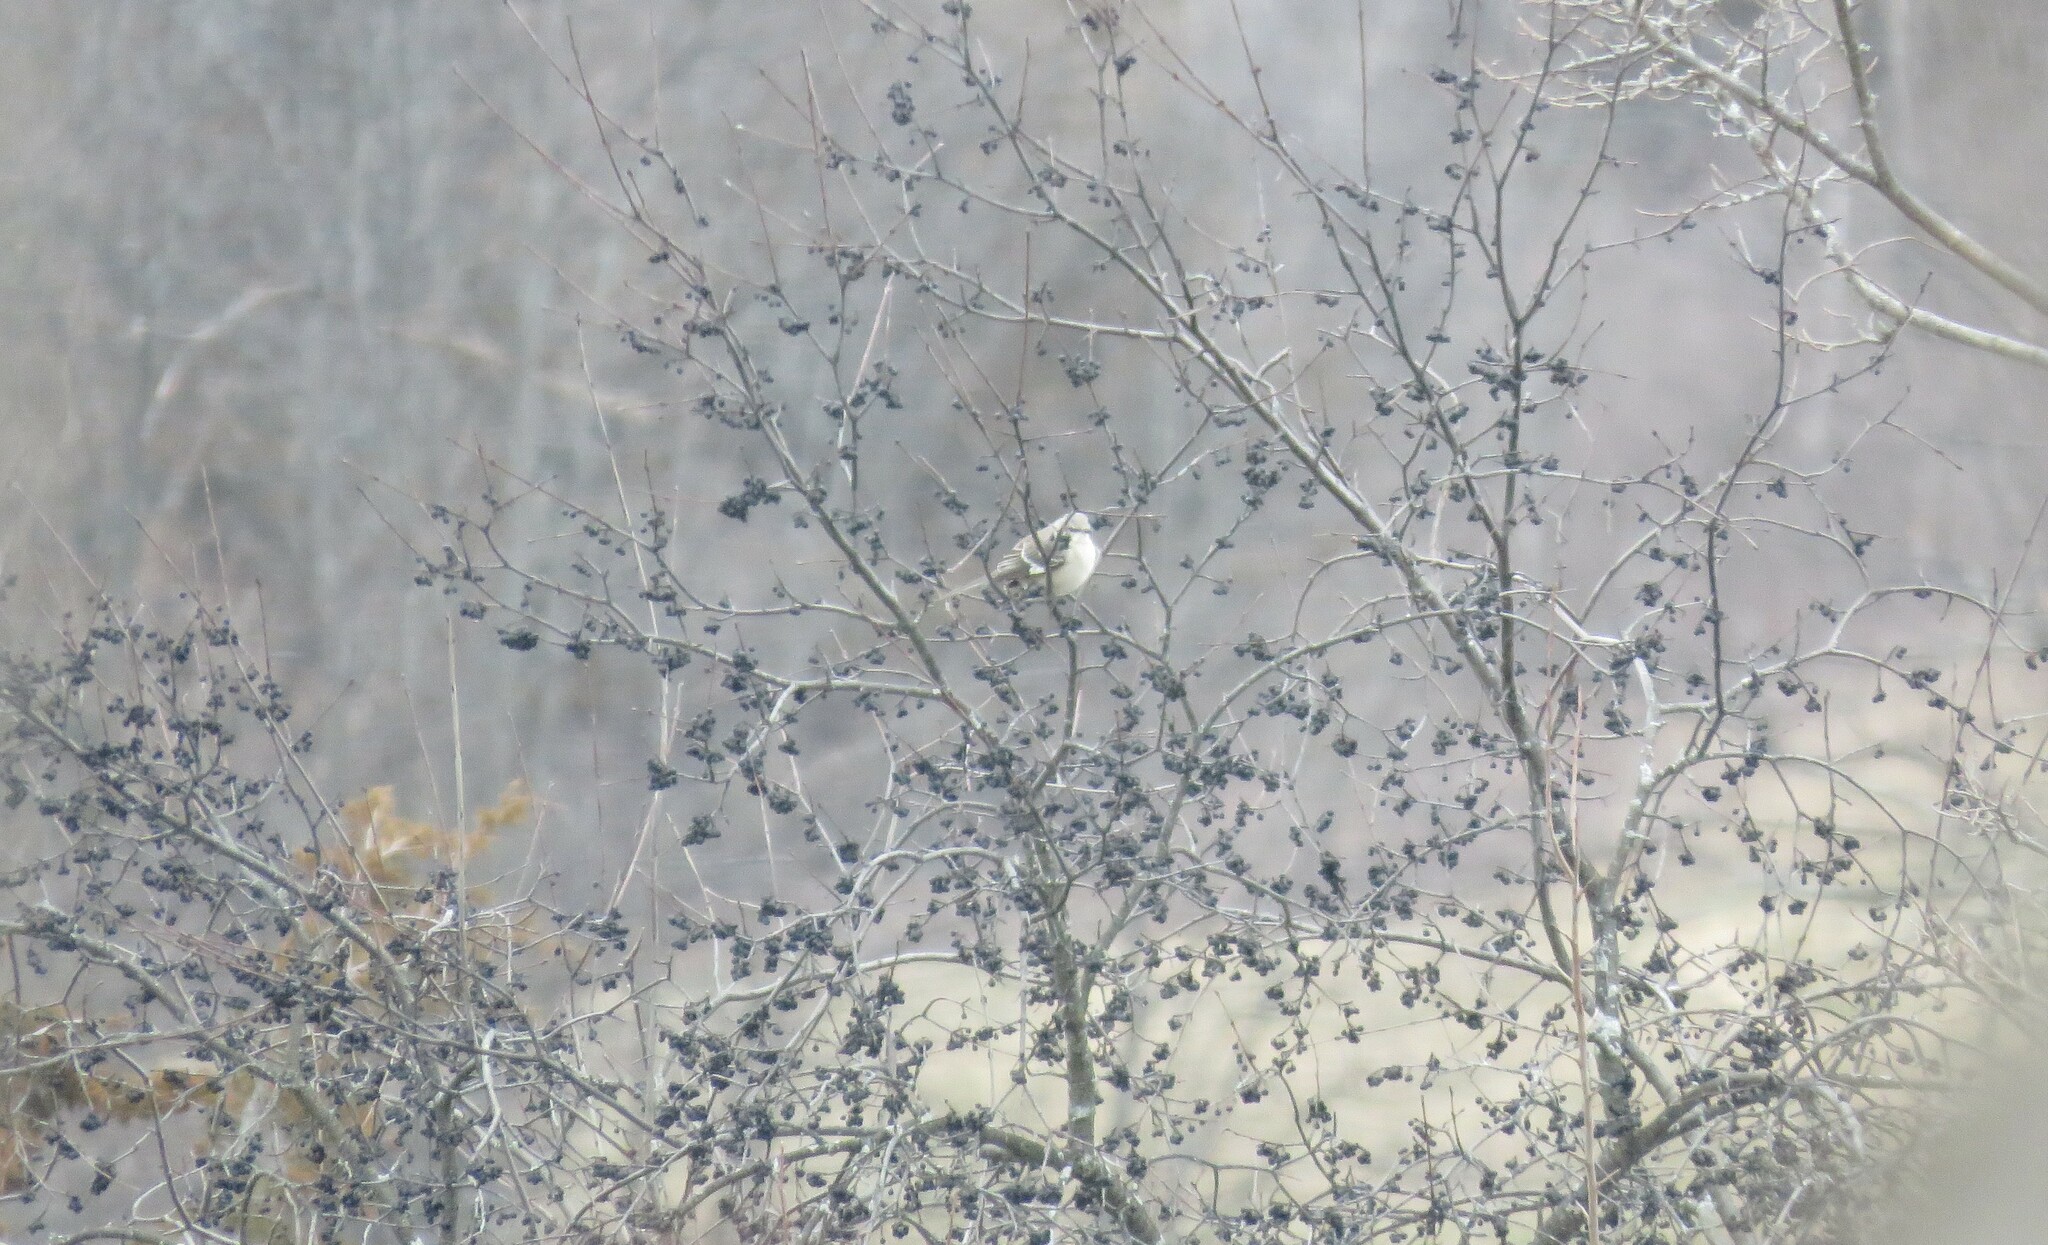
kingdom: Animalia
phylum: Chordata
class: Aves
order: Passeriformes
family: Mimidae
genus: Mimus
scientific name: Mimus polyglottos
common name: Northern mockingbird
